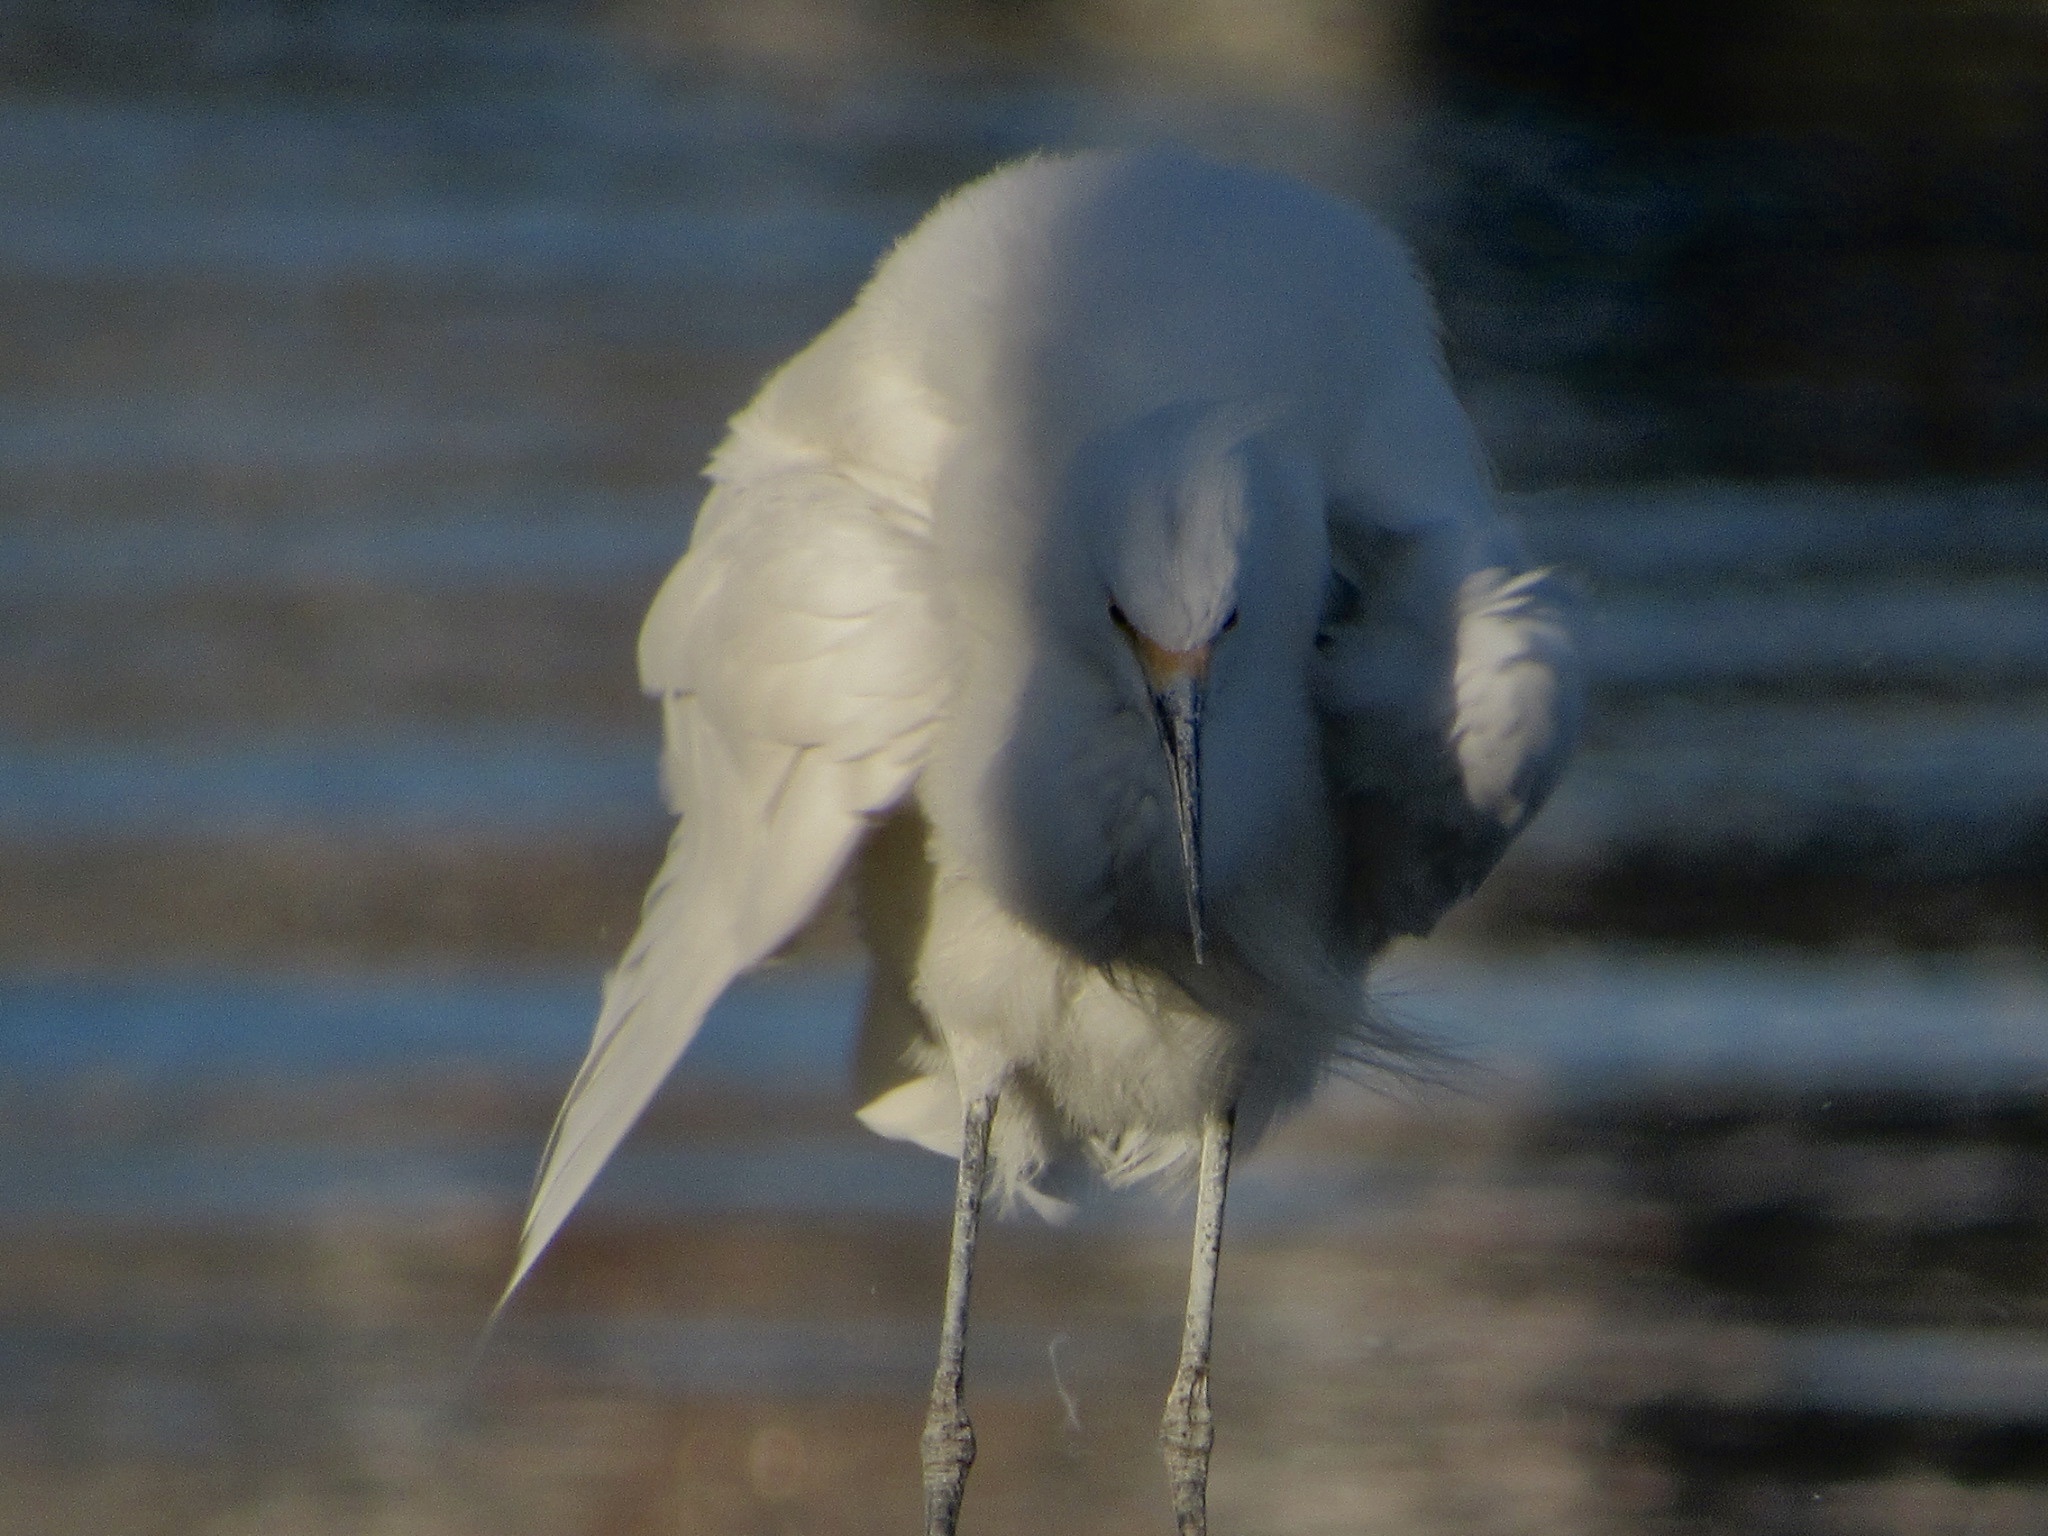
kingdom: Animalia
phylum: Chordata
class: Aves
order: Pelecaniformes
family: Ardeidae
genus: Egretta
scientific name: Egretta thula
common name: Snowy egret
